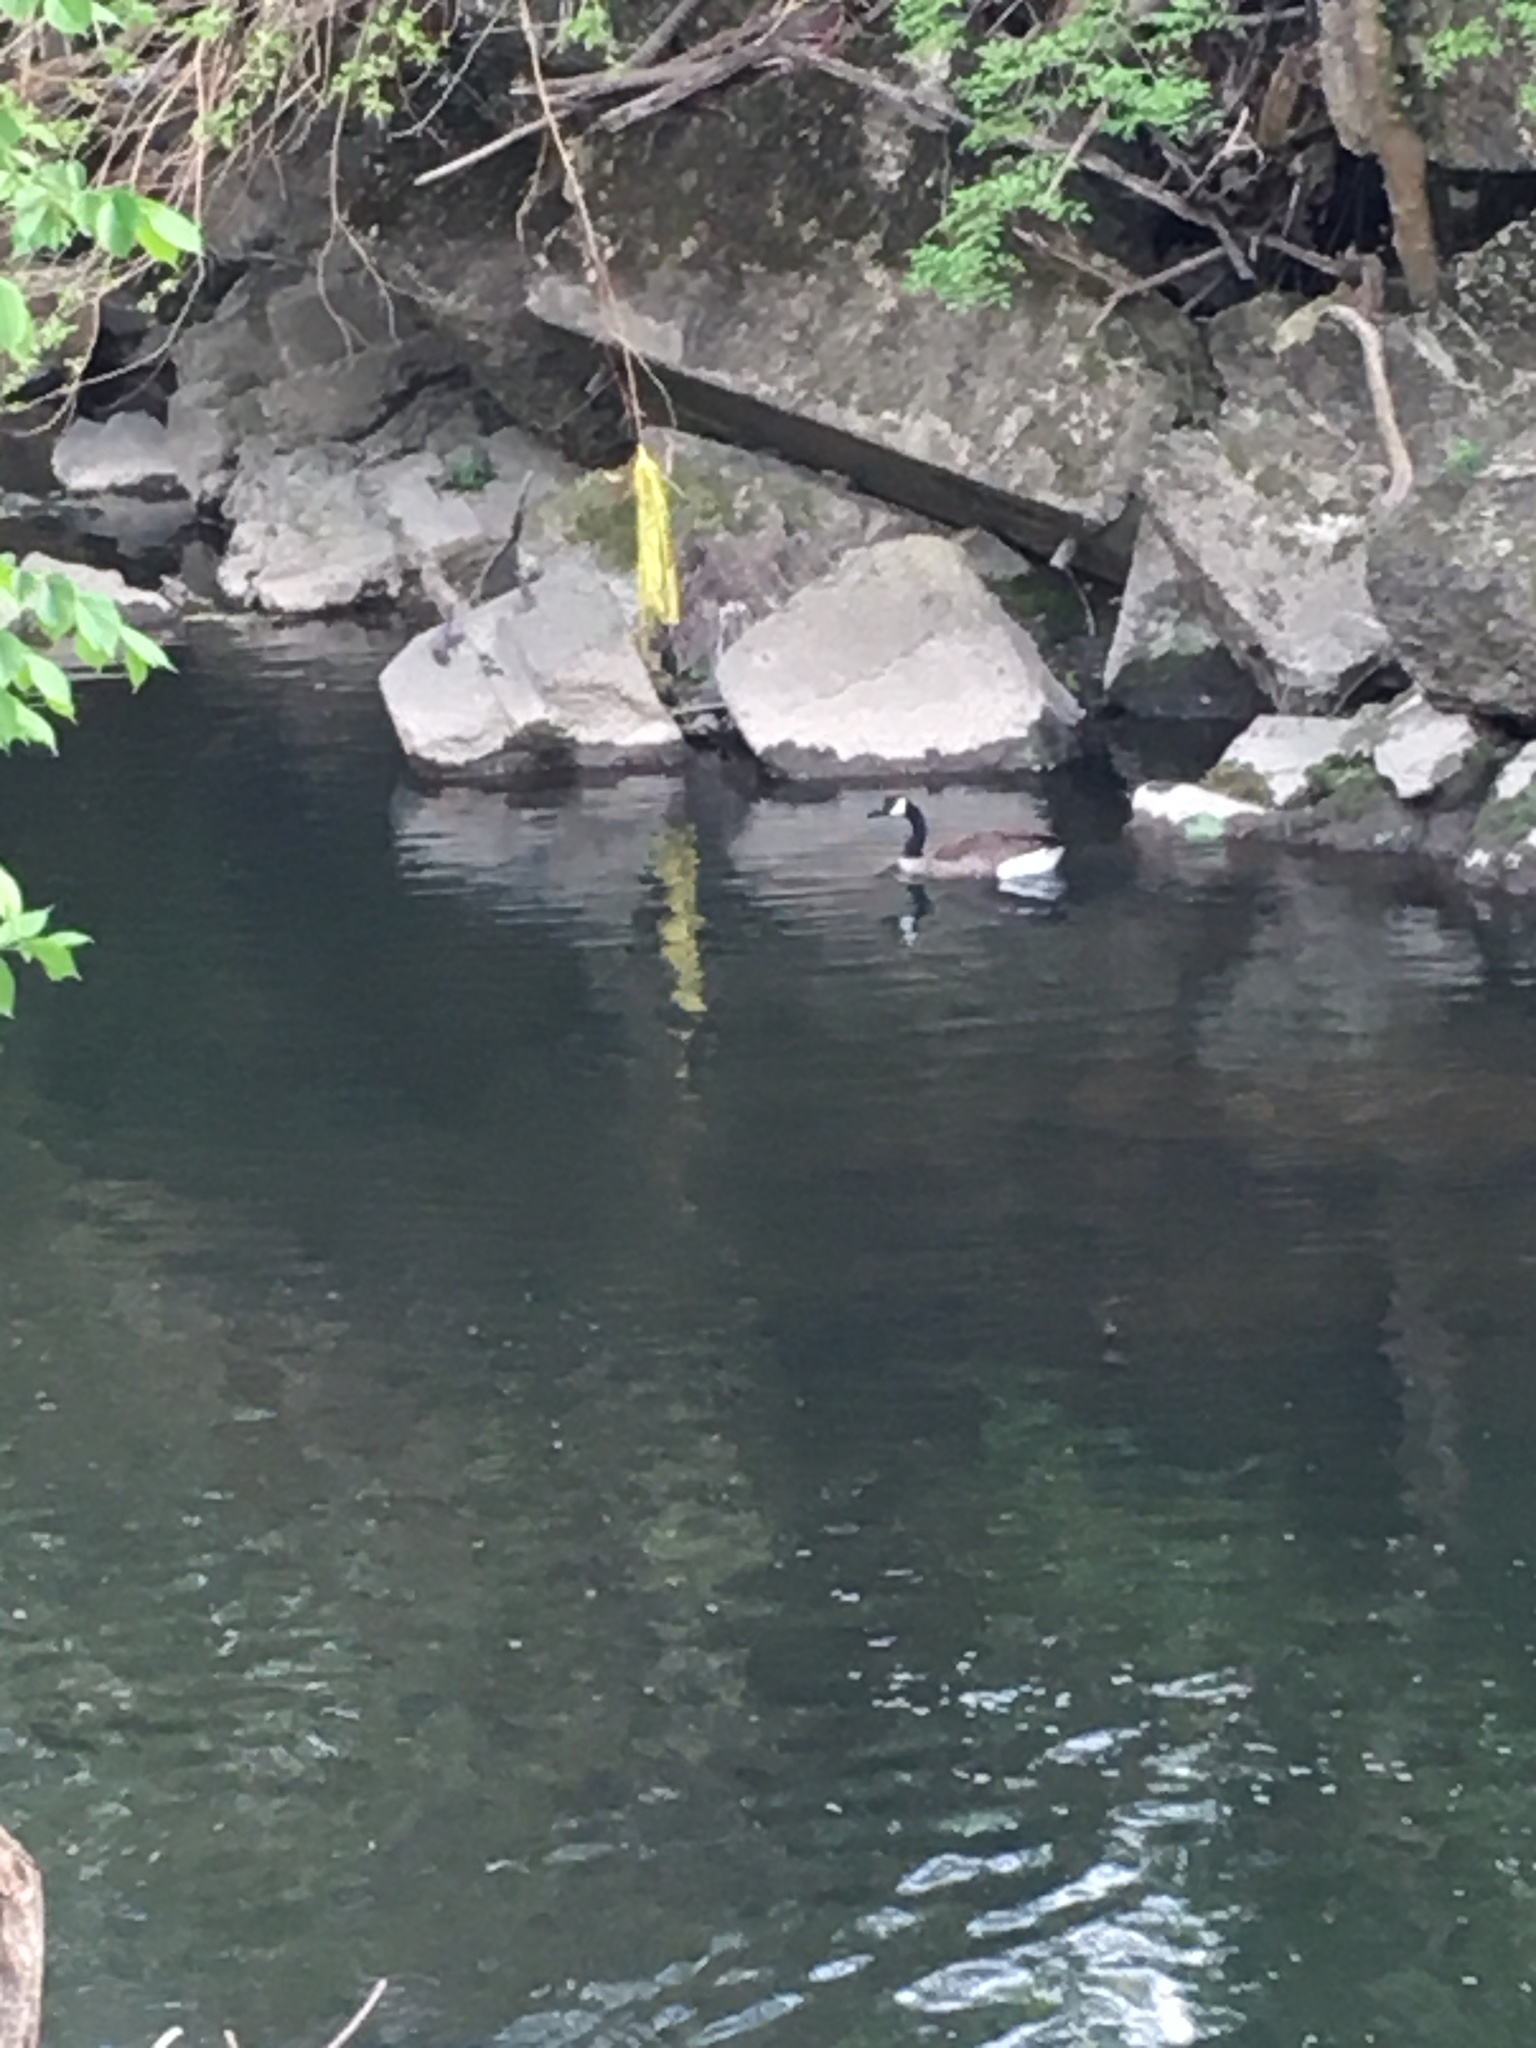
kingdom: Animalia
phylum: Chordata
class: Aves
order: Anseriformes
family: Anatidae
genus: Branta
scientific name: Branta canadensis
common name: Canada goose
